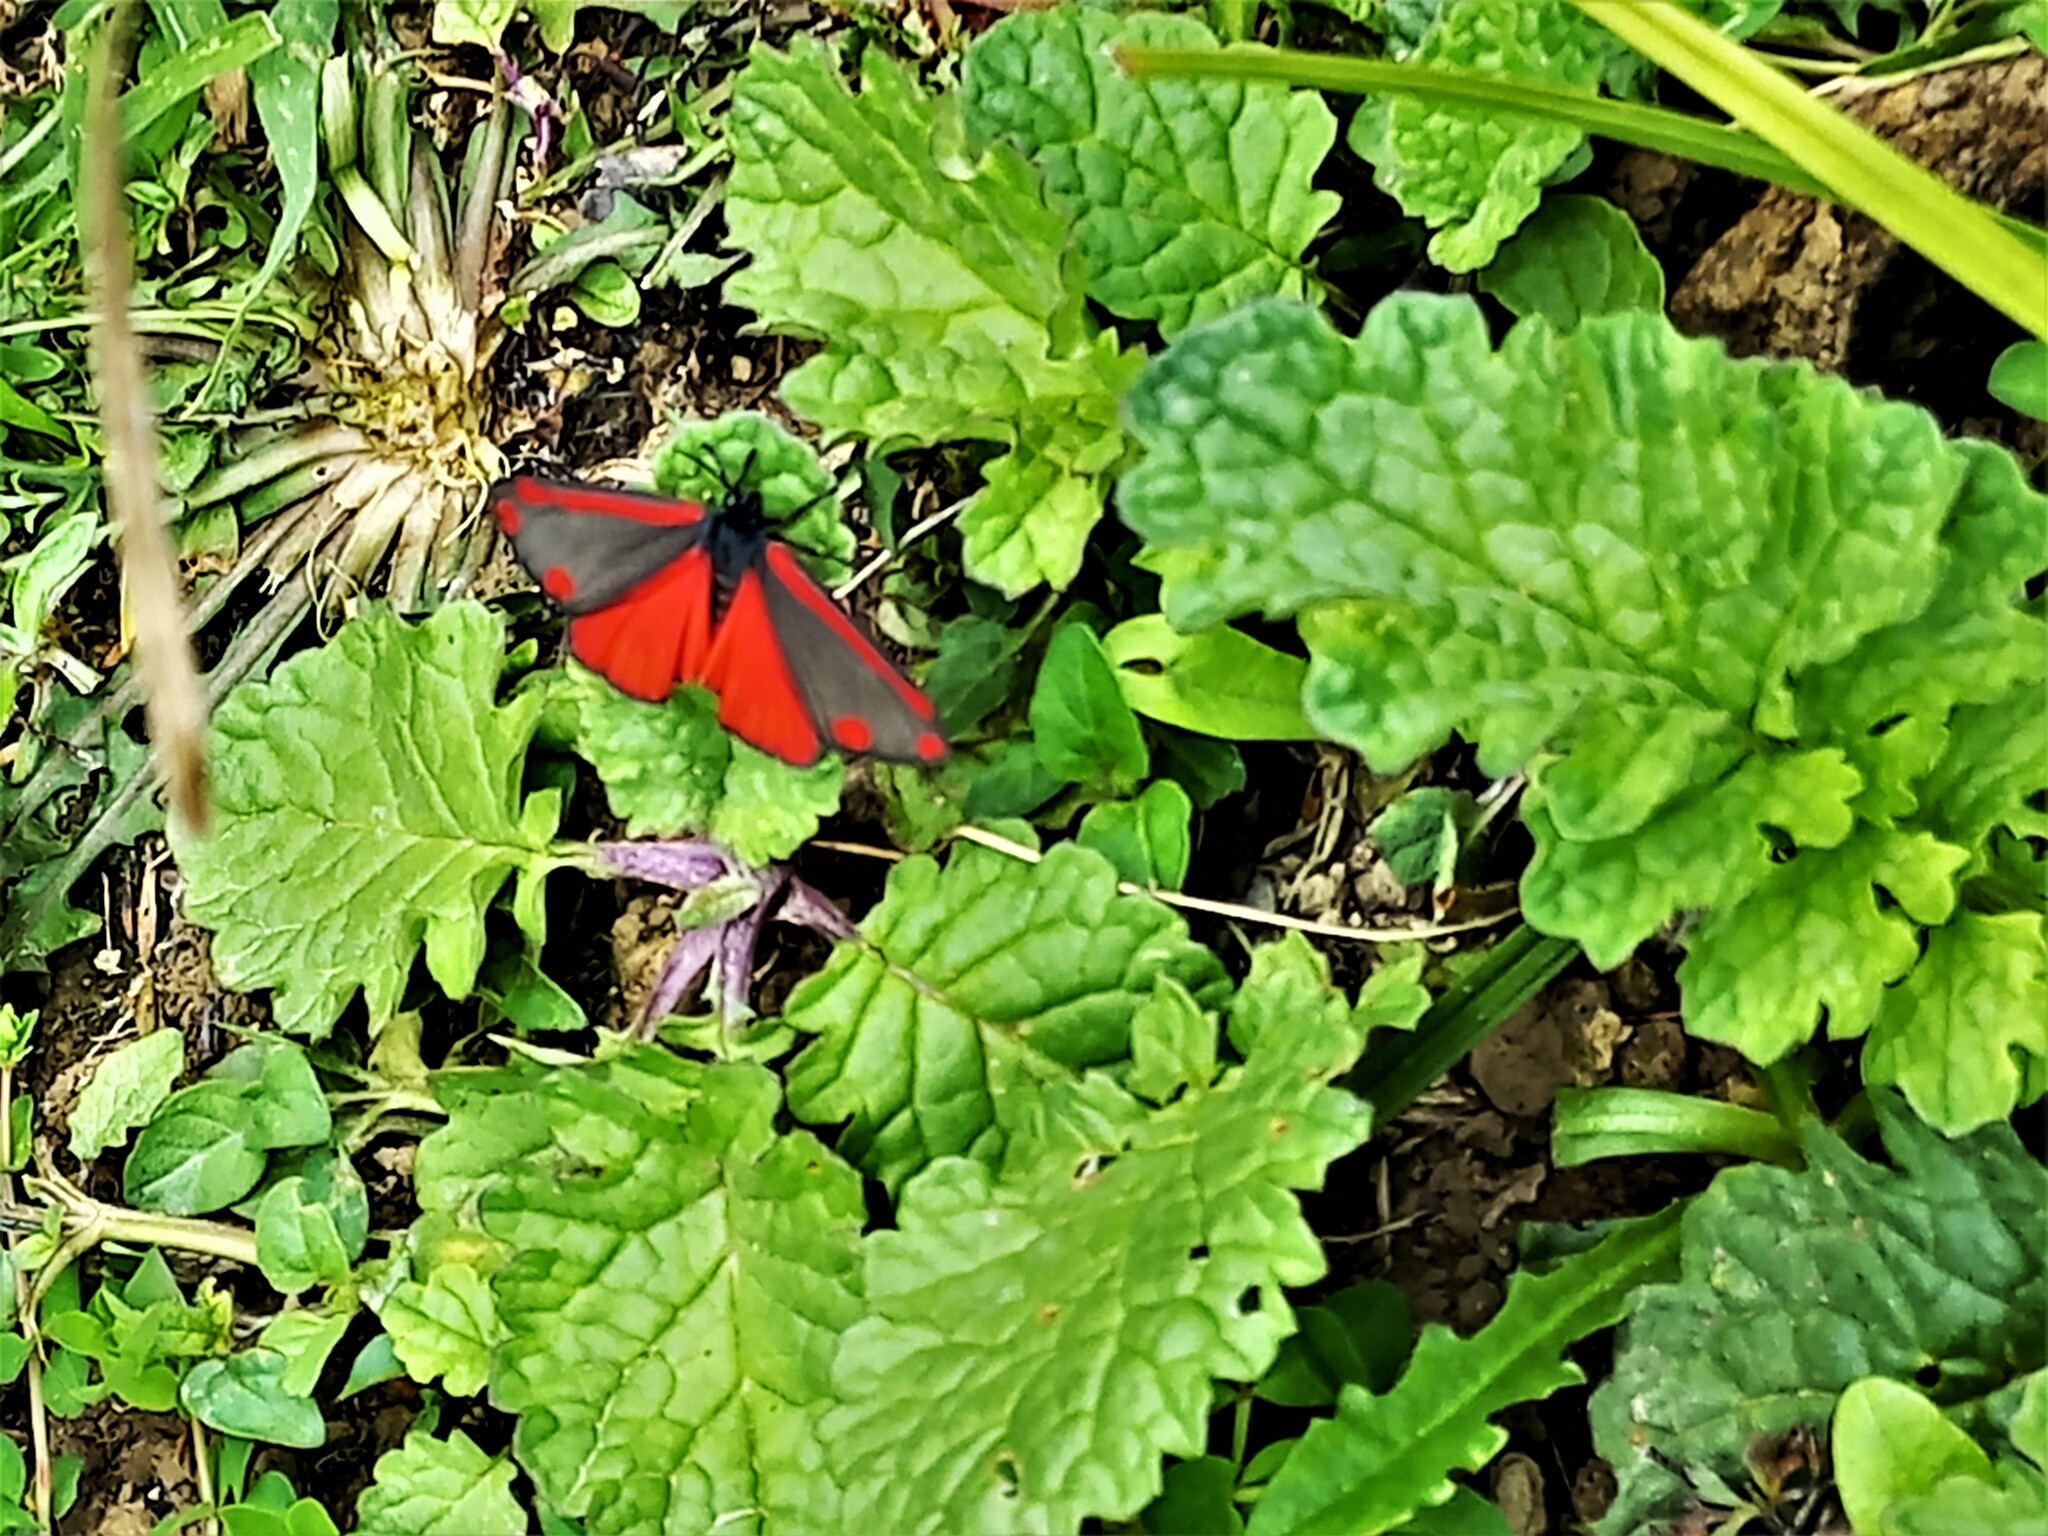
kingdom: Animalia
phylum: Arthropoda
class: Insecta
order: Lepidoptera
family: Erebidae
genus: Tyria
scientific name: Tyria jacobaeae
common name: Cinnabar
